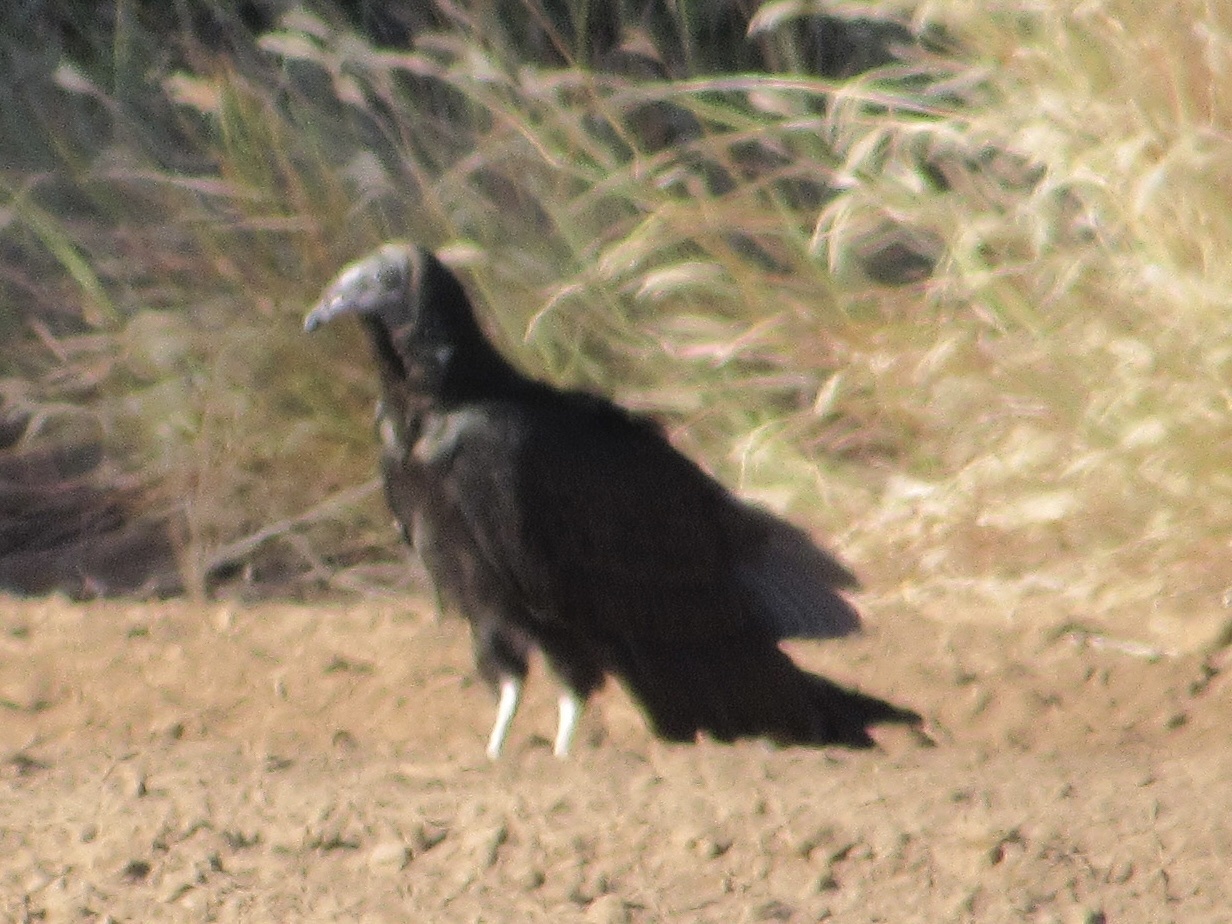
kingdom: Animalia
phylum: Chordata
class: Aves
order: Accipitriformes
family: Cathartidae
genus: Cathartes
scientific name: Cathartes aura
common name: Turkey vulture
